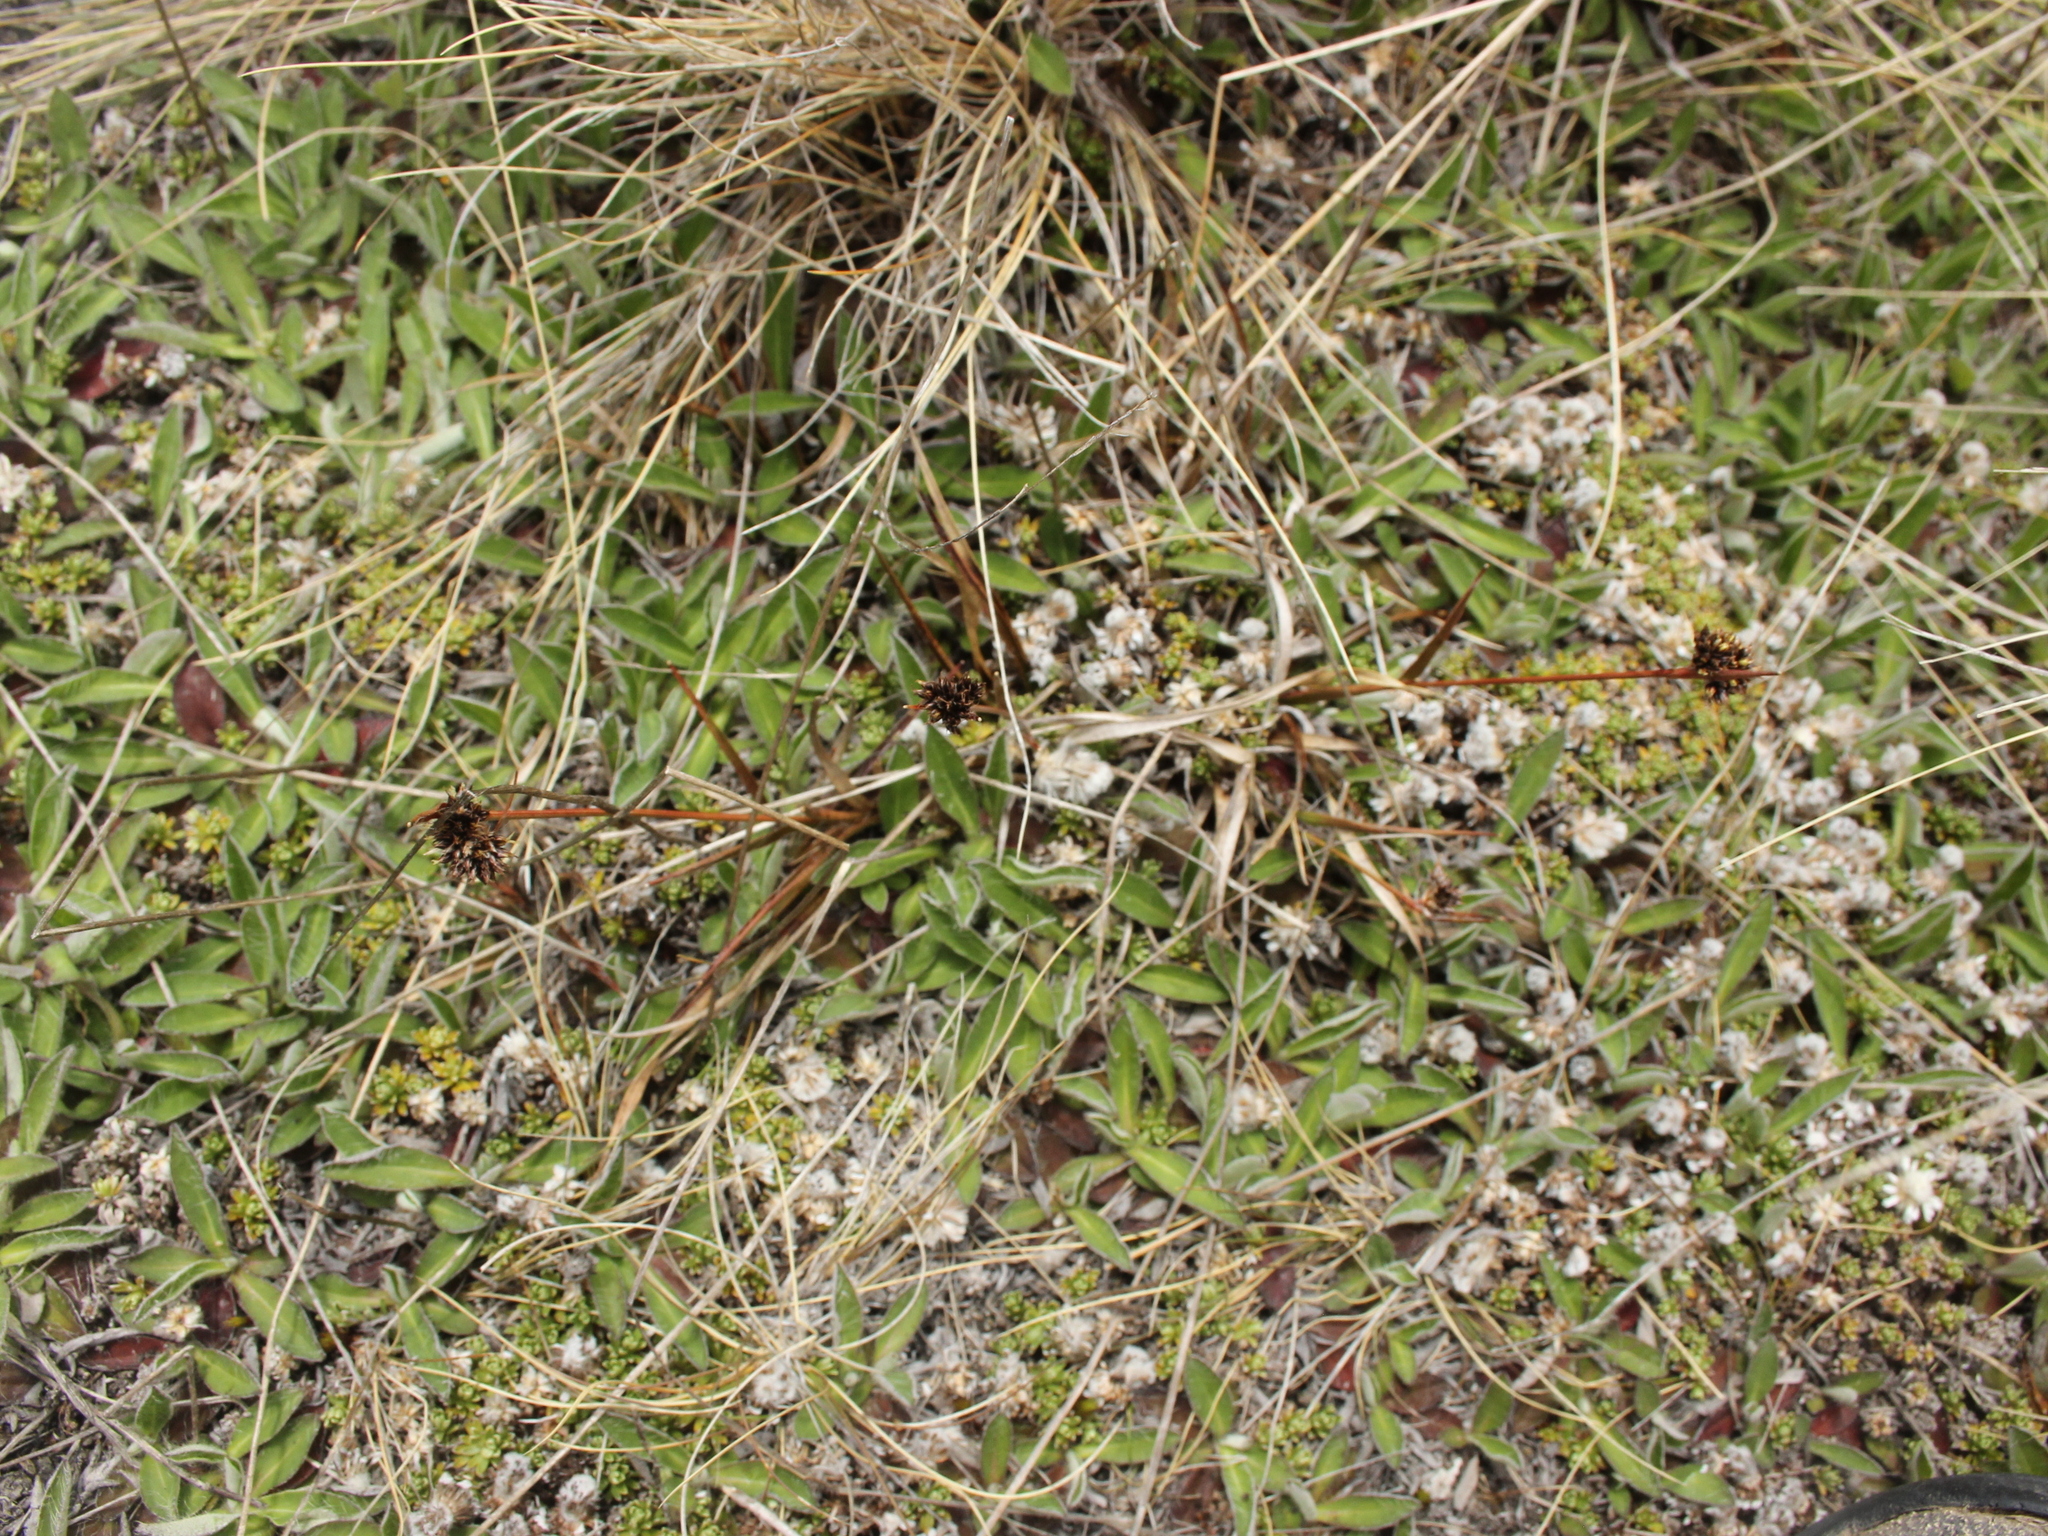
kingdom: Plantae
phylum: Tracheophyta
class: Liliopsida
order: Poales
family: Juncaceae
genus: Luzula
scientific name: Luzula rufa
